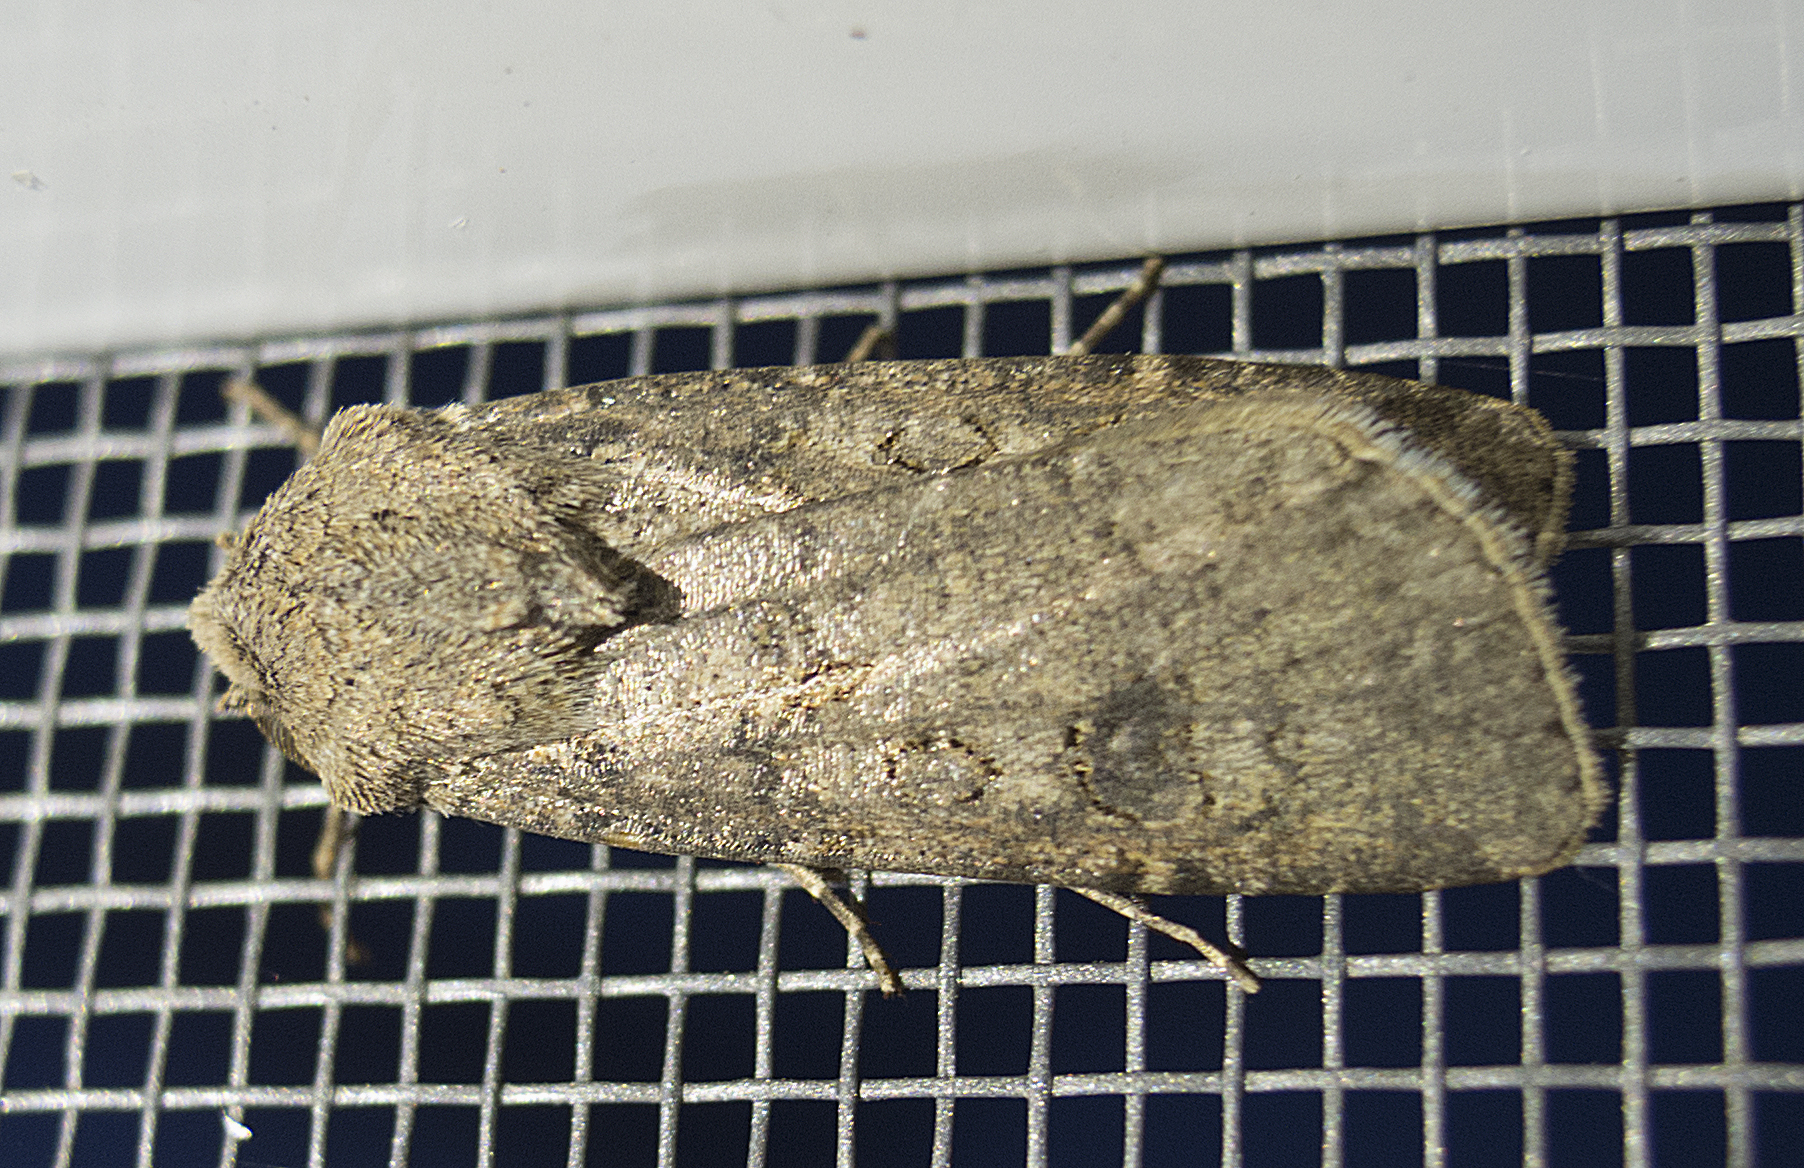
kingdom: Animalia
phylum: Arthropoda
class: Insecta
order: Lepidoptera
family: Noctuidae
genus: Agrotis
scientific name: Agrotis segetum
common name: Turnip moth
